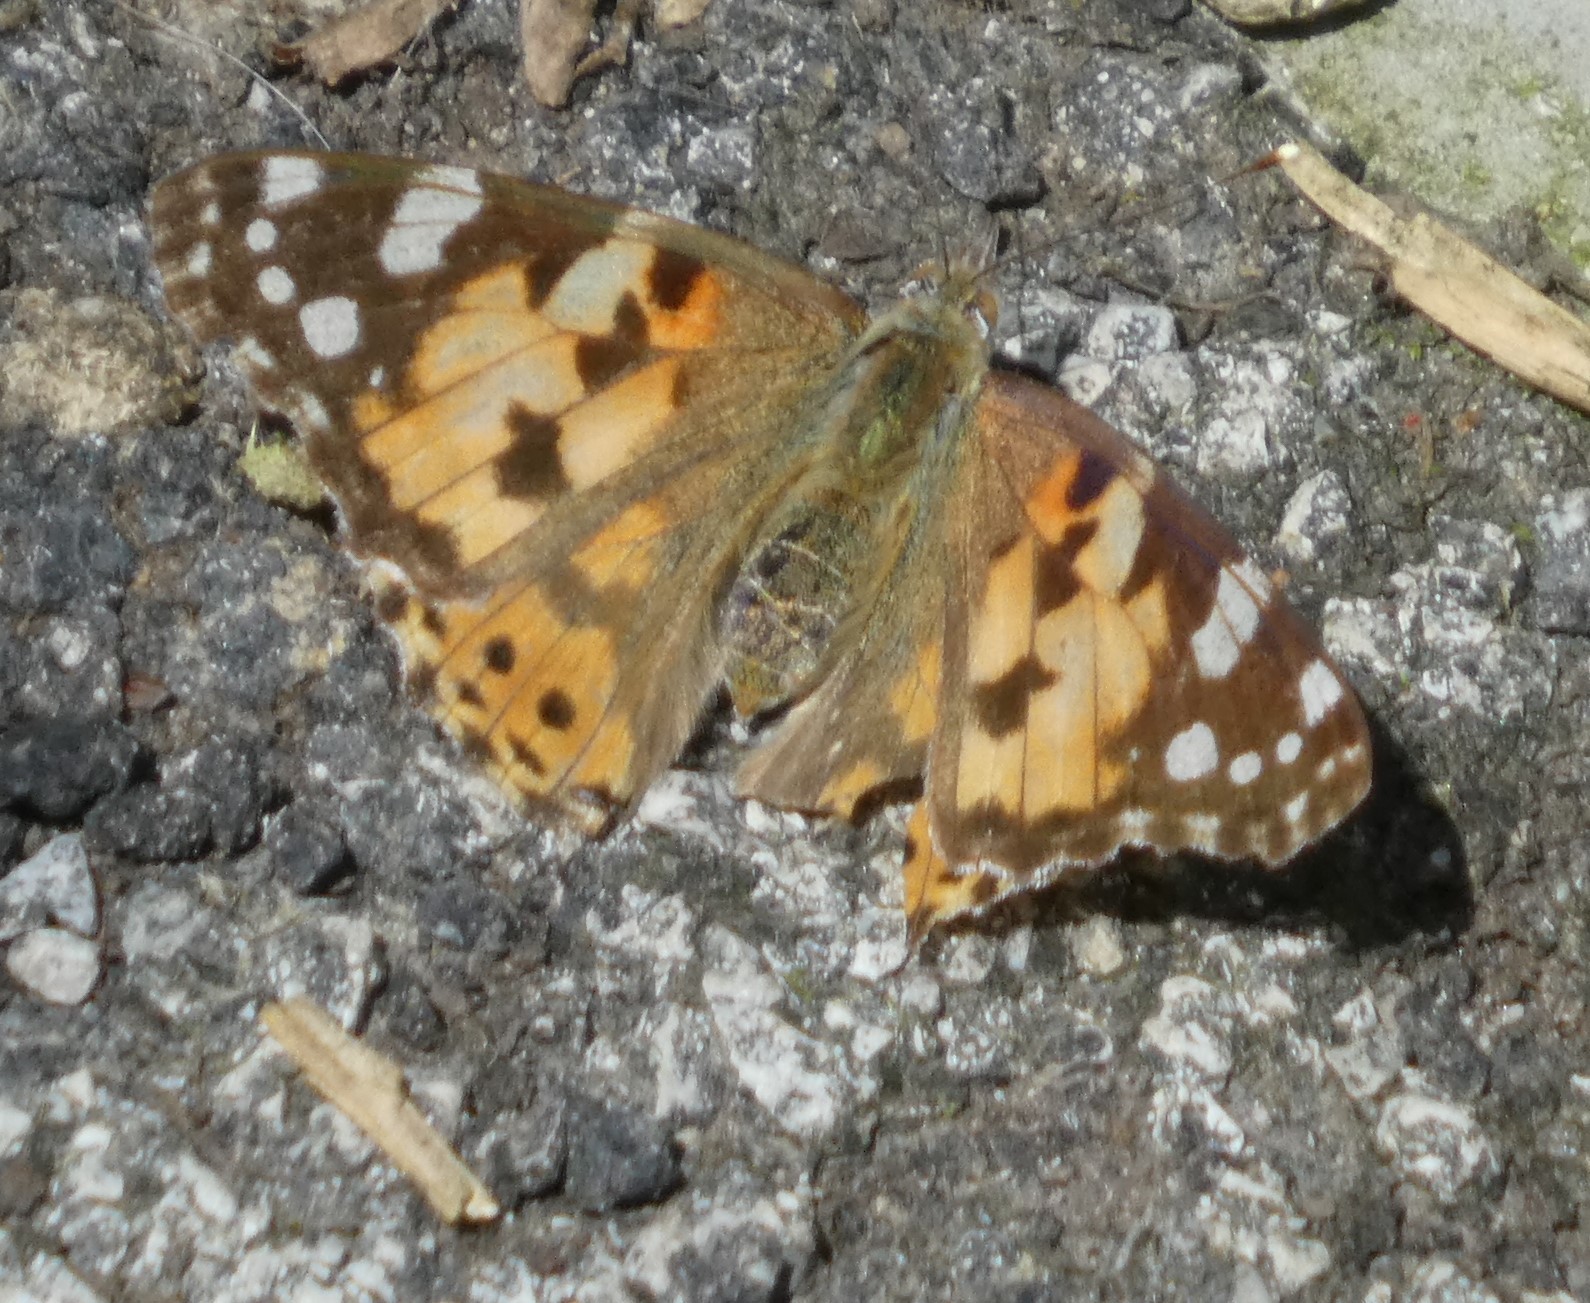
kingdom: Animalia
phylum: Arthropoda
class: Insecta
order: Lepidoptera
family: Nymphalidae
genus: Vanessa
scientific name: Vanessa cardui
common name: Painted lady
